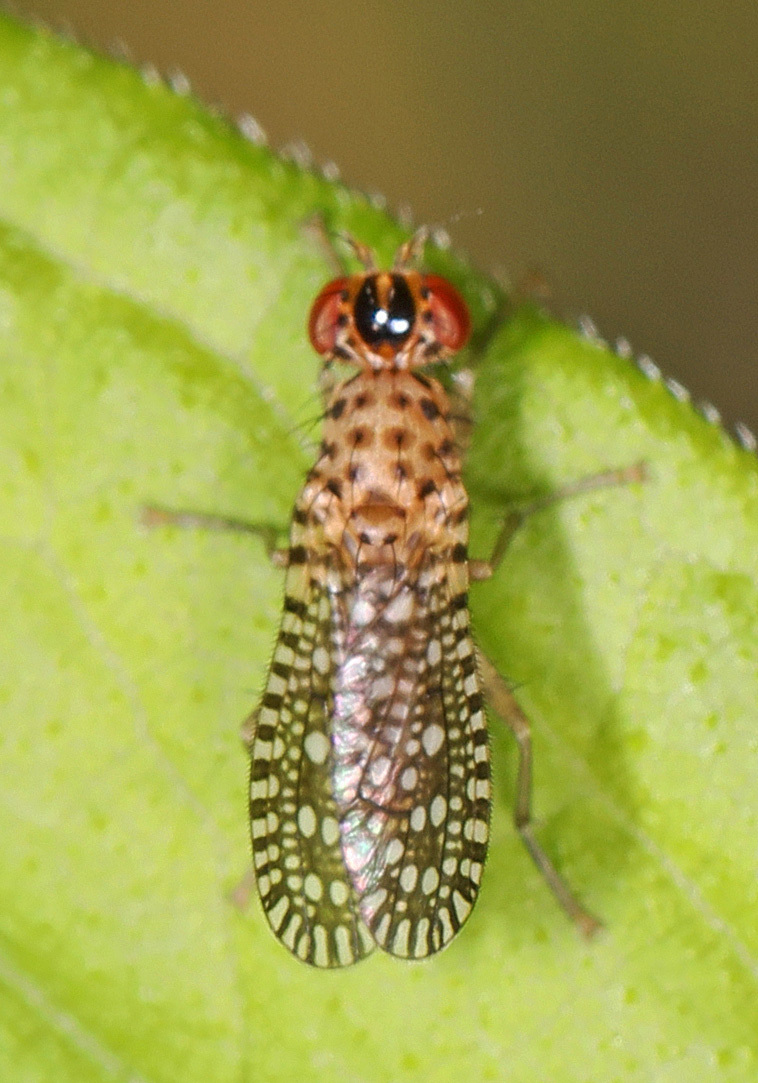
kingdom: Animalia
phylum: Arthropoda
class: Insecta
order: Diptera
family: Sciomyzidae
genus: Poecilographa
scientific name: Poecilographa decora
